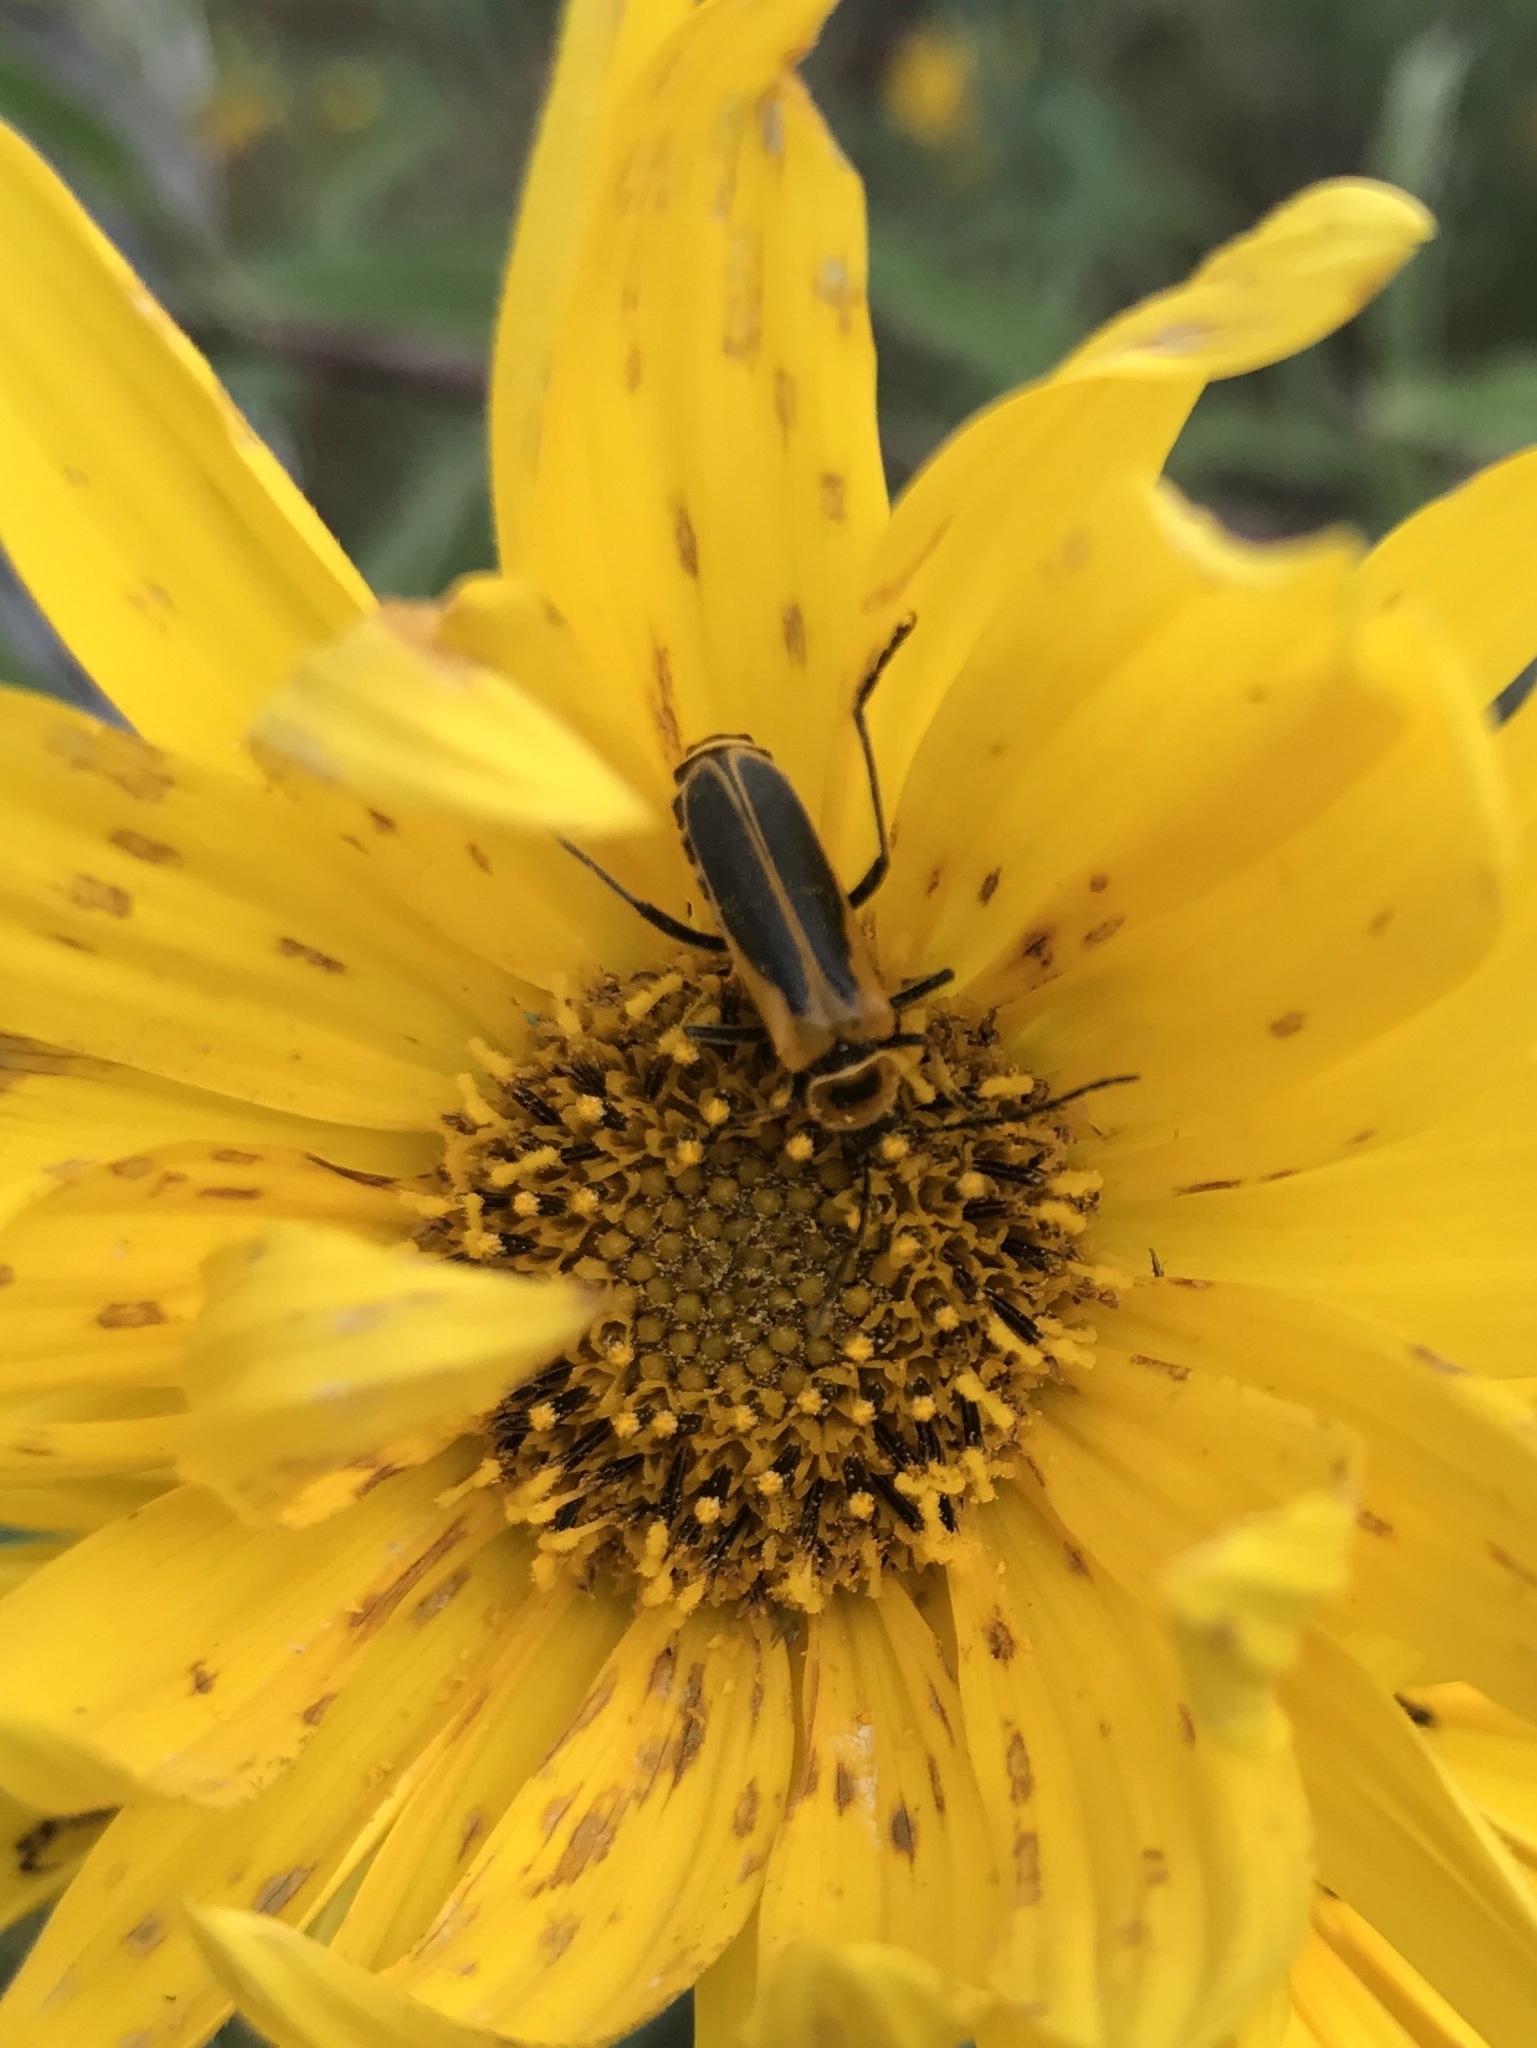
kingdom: Animalia
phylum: Arthropoda
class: Insecta
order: Coleoptera
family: Cantharidae
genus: Chauliognathus
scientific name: Chauliognathus pensylvanicus
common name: Goldenrod soldier beetle
